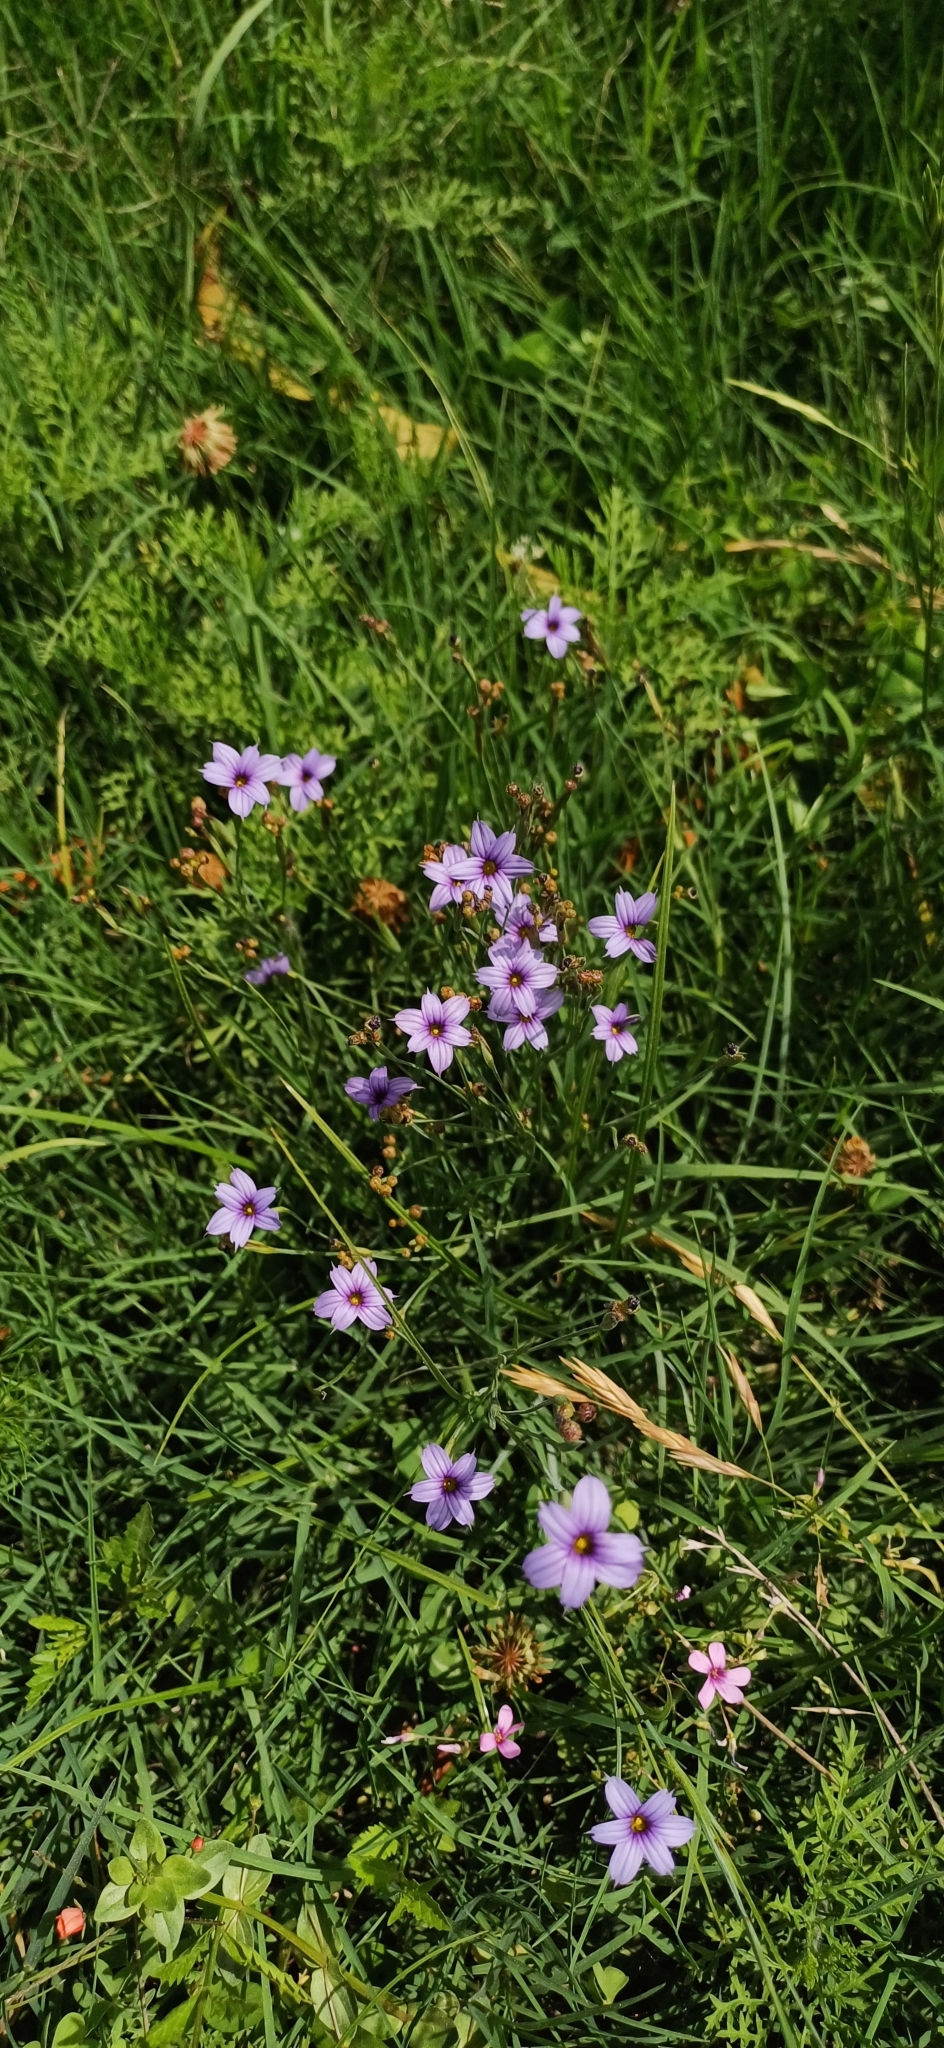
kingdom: Plantae
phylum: Tracheophyta
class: Liliopsida
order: Asparagales
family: Iridaceae
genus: Sisyrinchium
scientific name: Sisyrinchium platense
